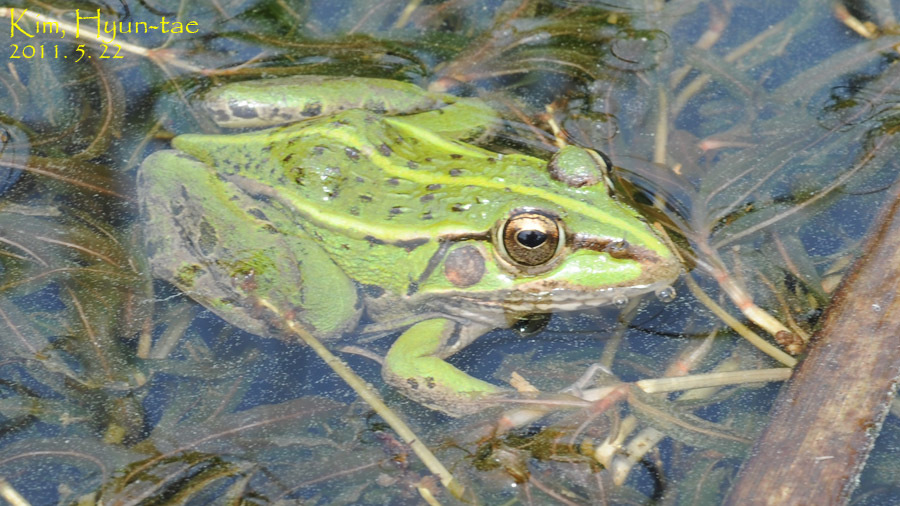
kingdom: Animalia
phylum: Chordata
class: Amphibia
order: Anura
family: Ranidae
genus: Pelophylax
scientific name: Pelophylax nigromaculatus
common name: Black-spotted pond frog
